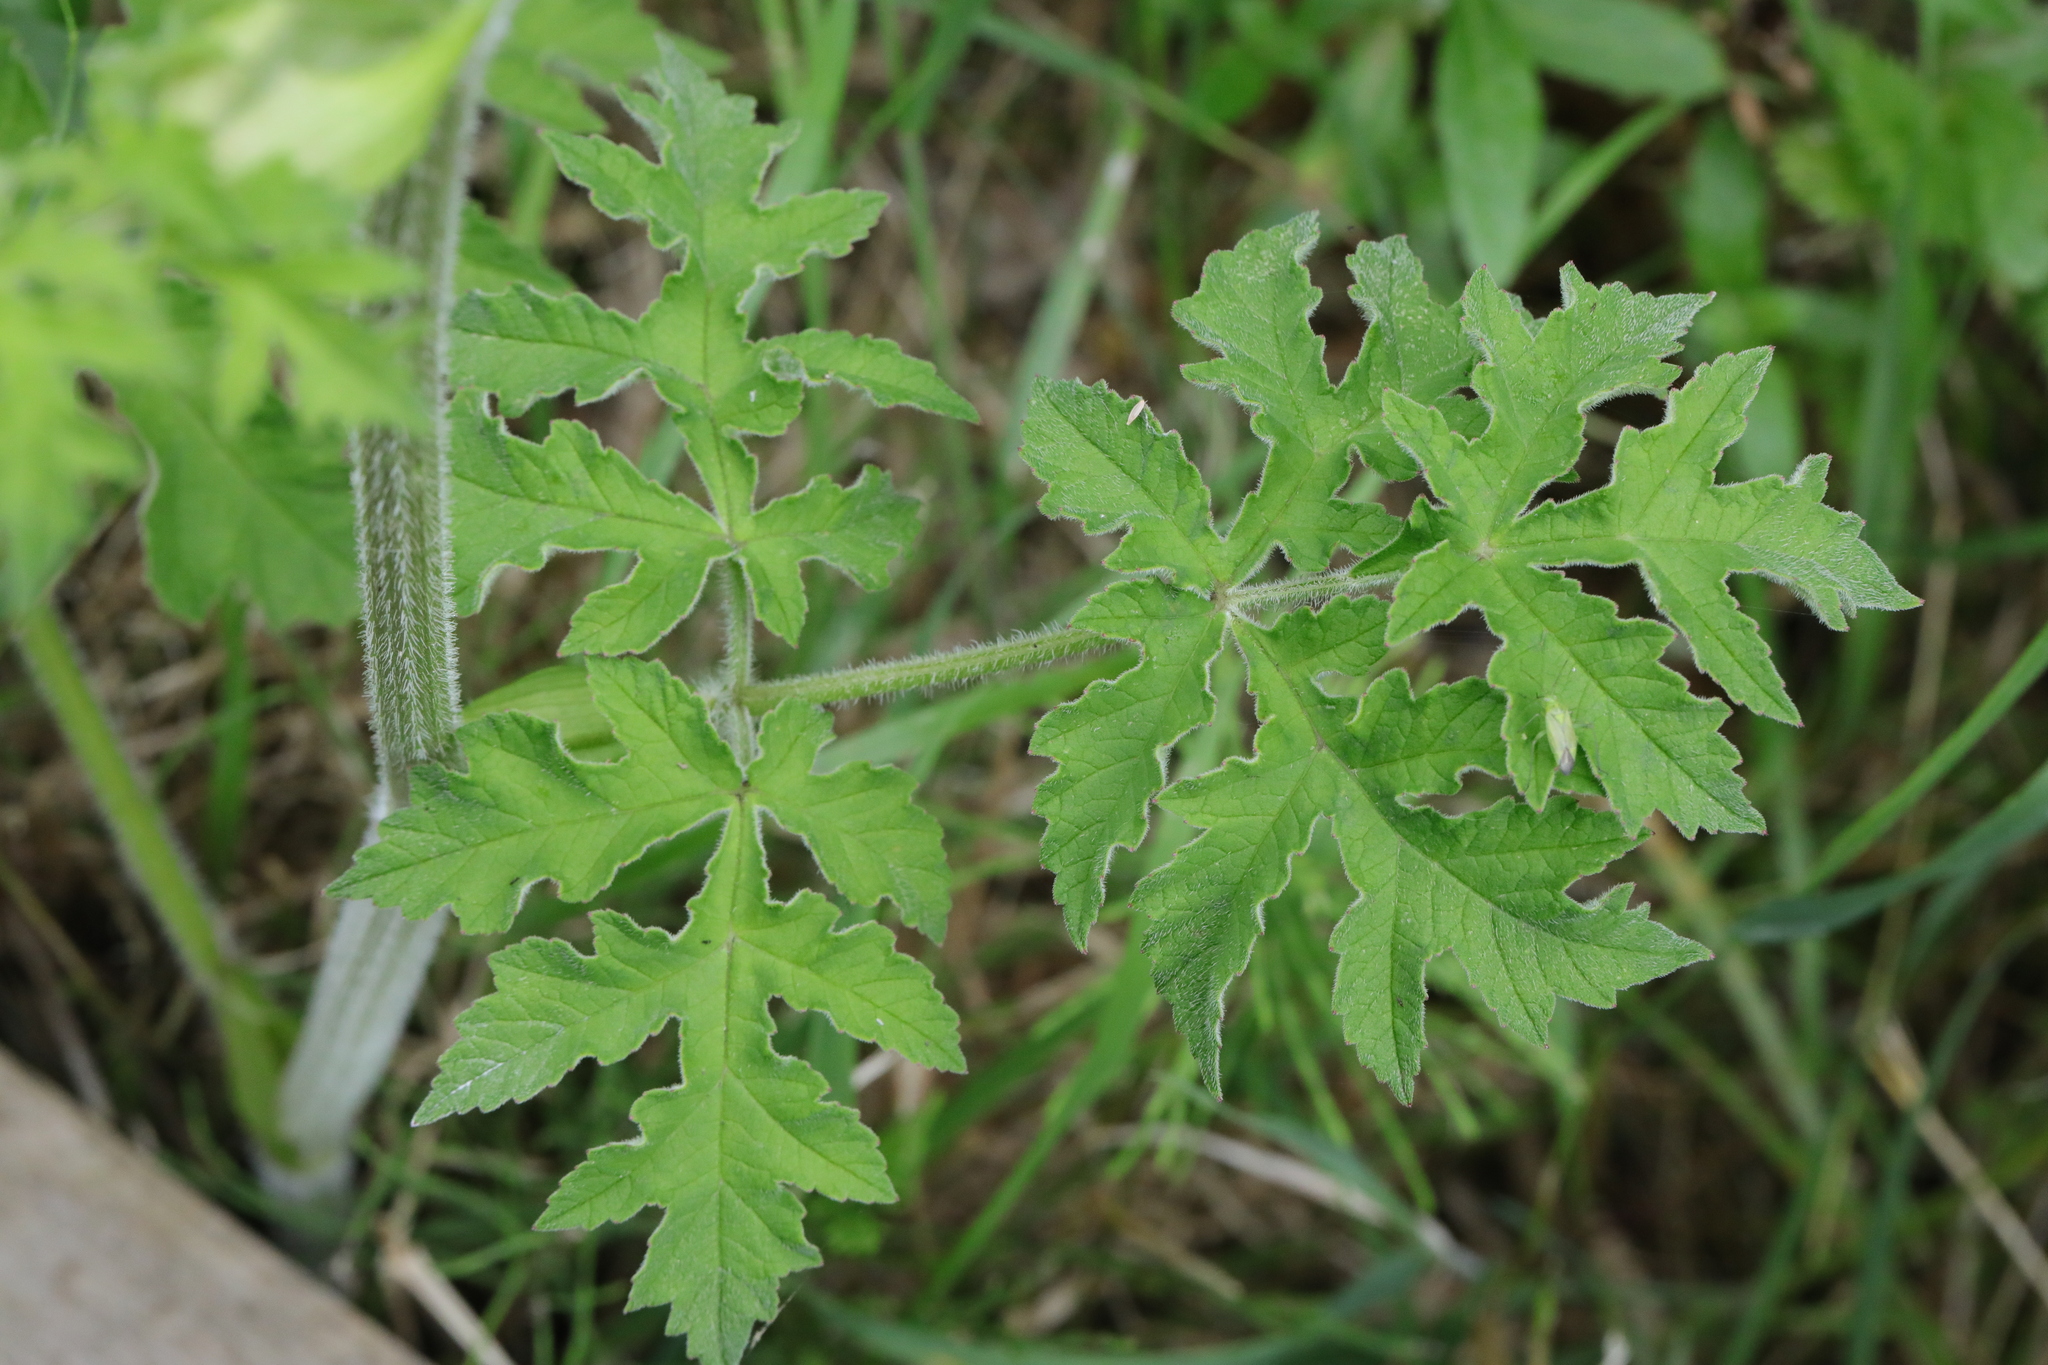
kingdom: Plantae
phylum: Tracheophyta
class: Magnoliopsida
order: Apiales
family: Apiaceae
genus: Heracleum
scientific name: Heracleum sphondylium
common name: Hogweed
